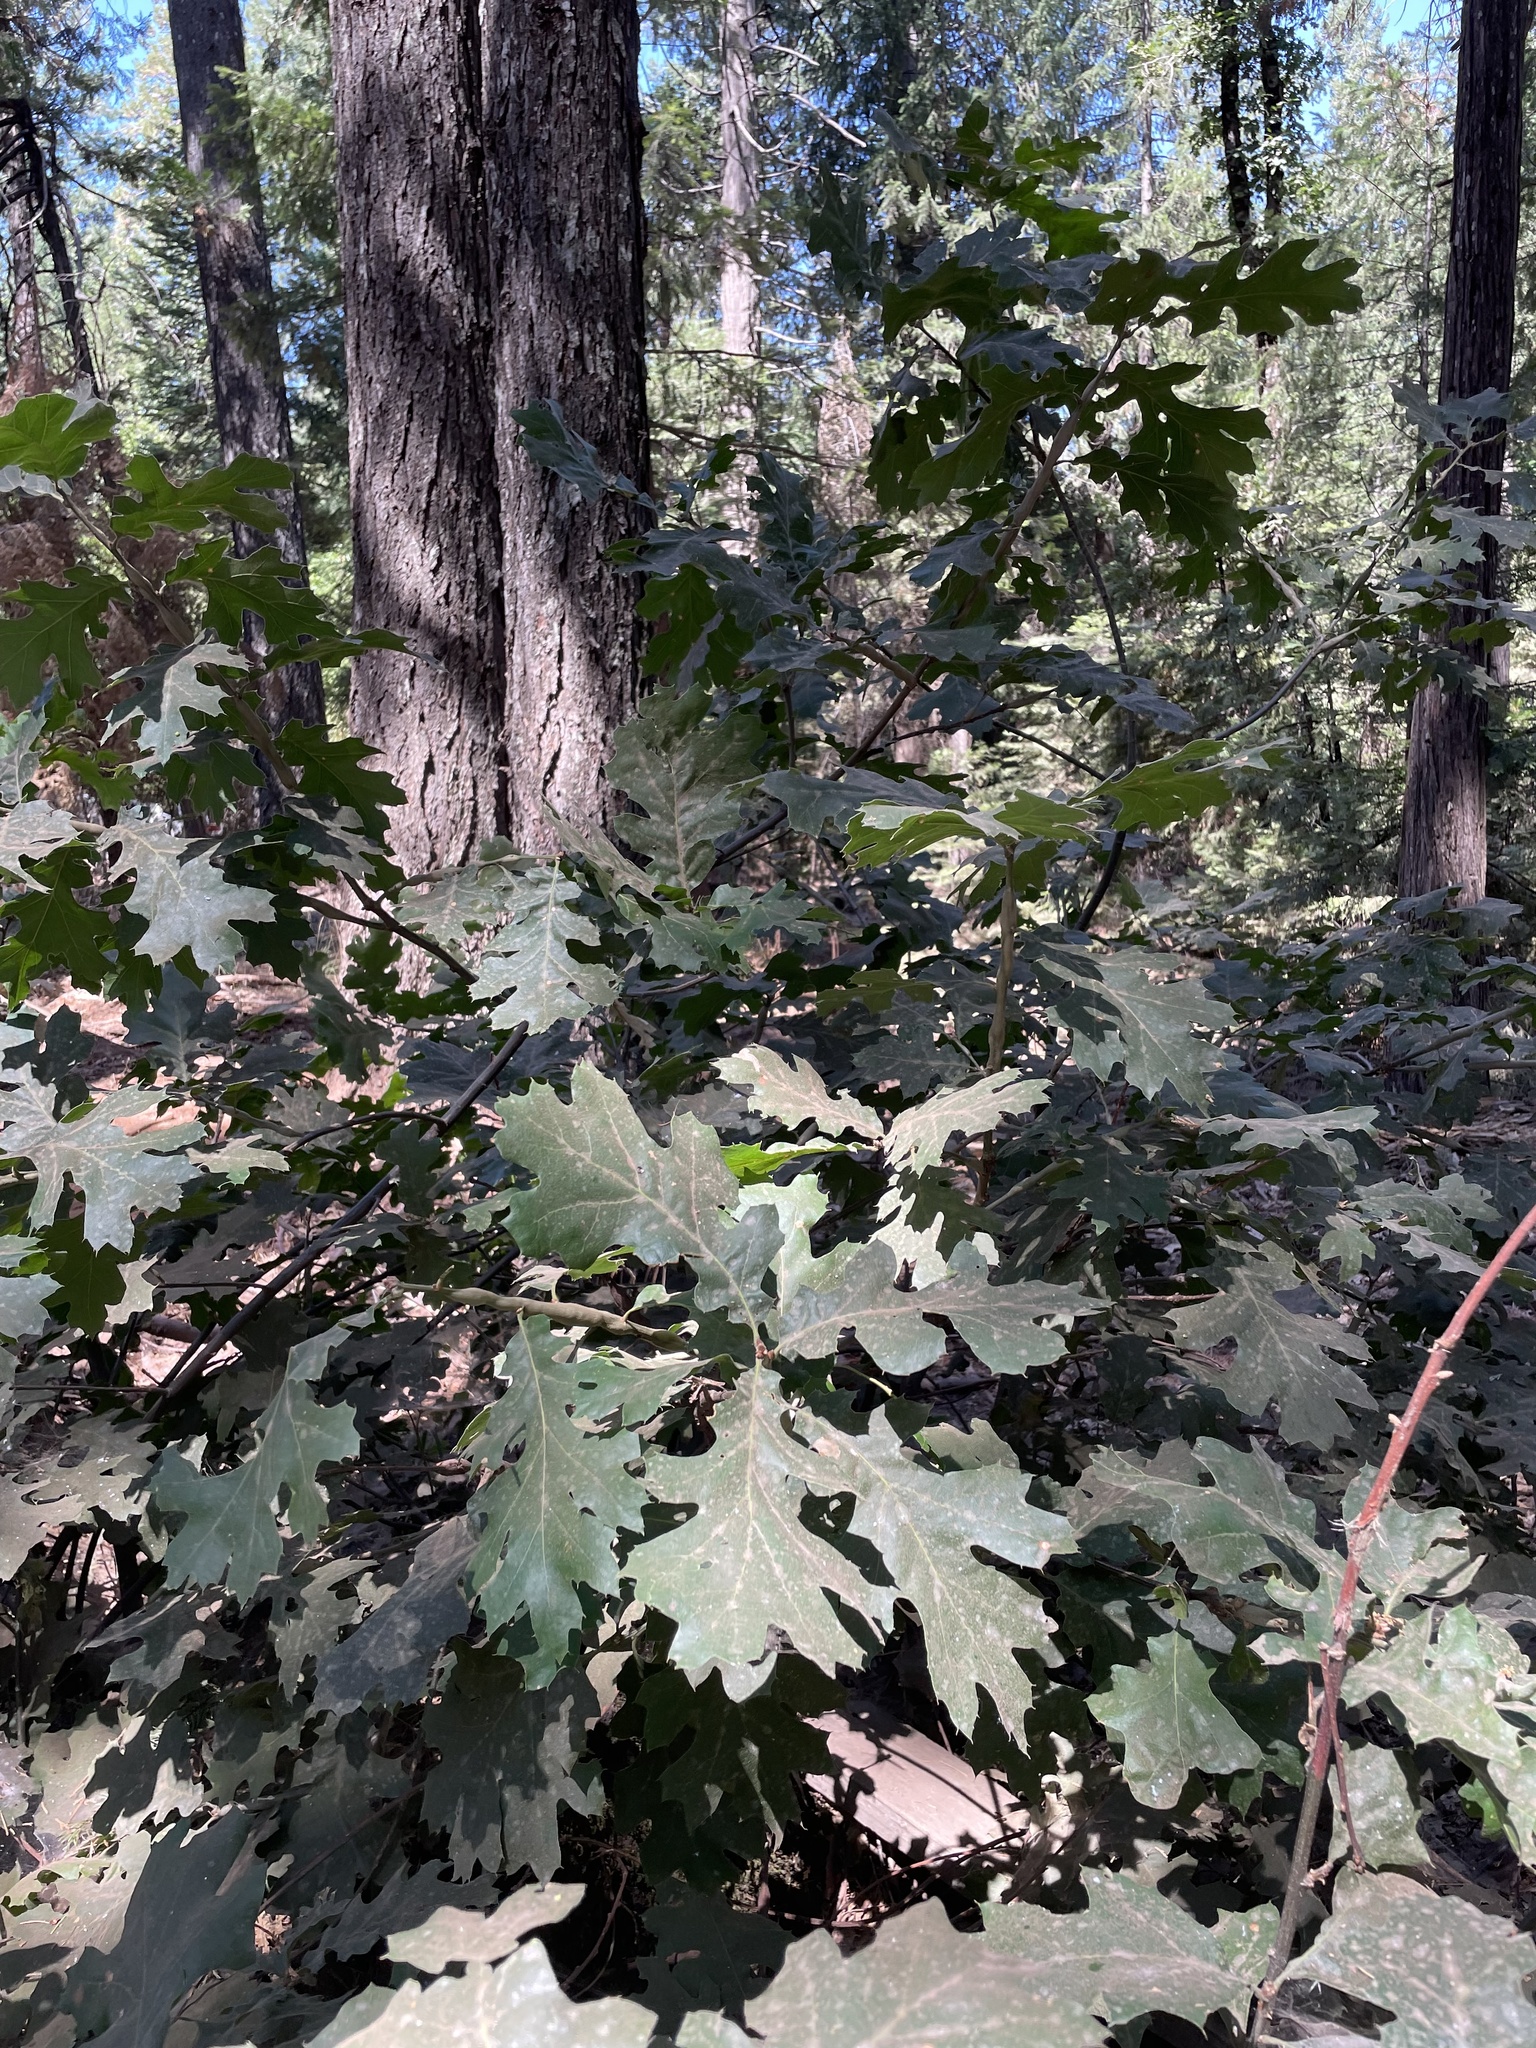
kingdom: Plantae
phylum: Tracheophyta
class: Magnoliopsida
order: Fagales
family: Fagaceae
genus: Quercus
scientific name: Quercus kelloggii
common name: California black oak
